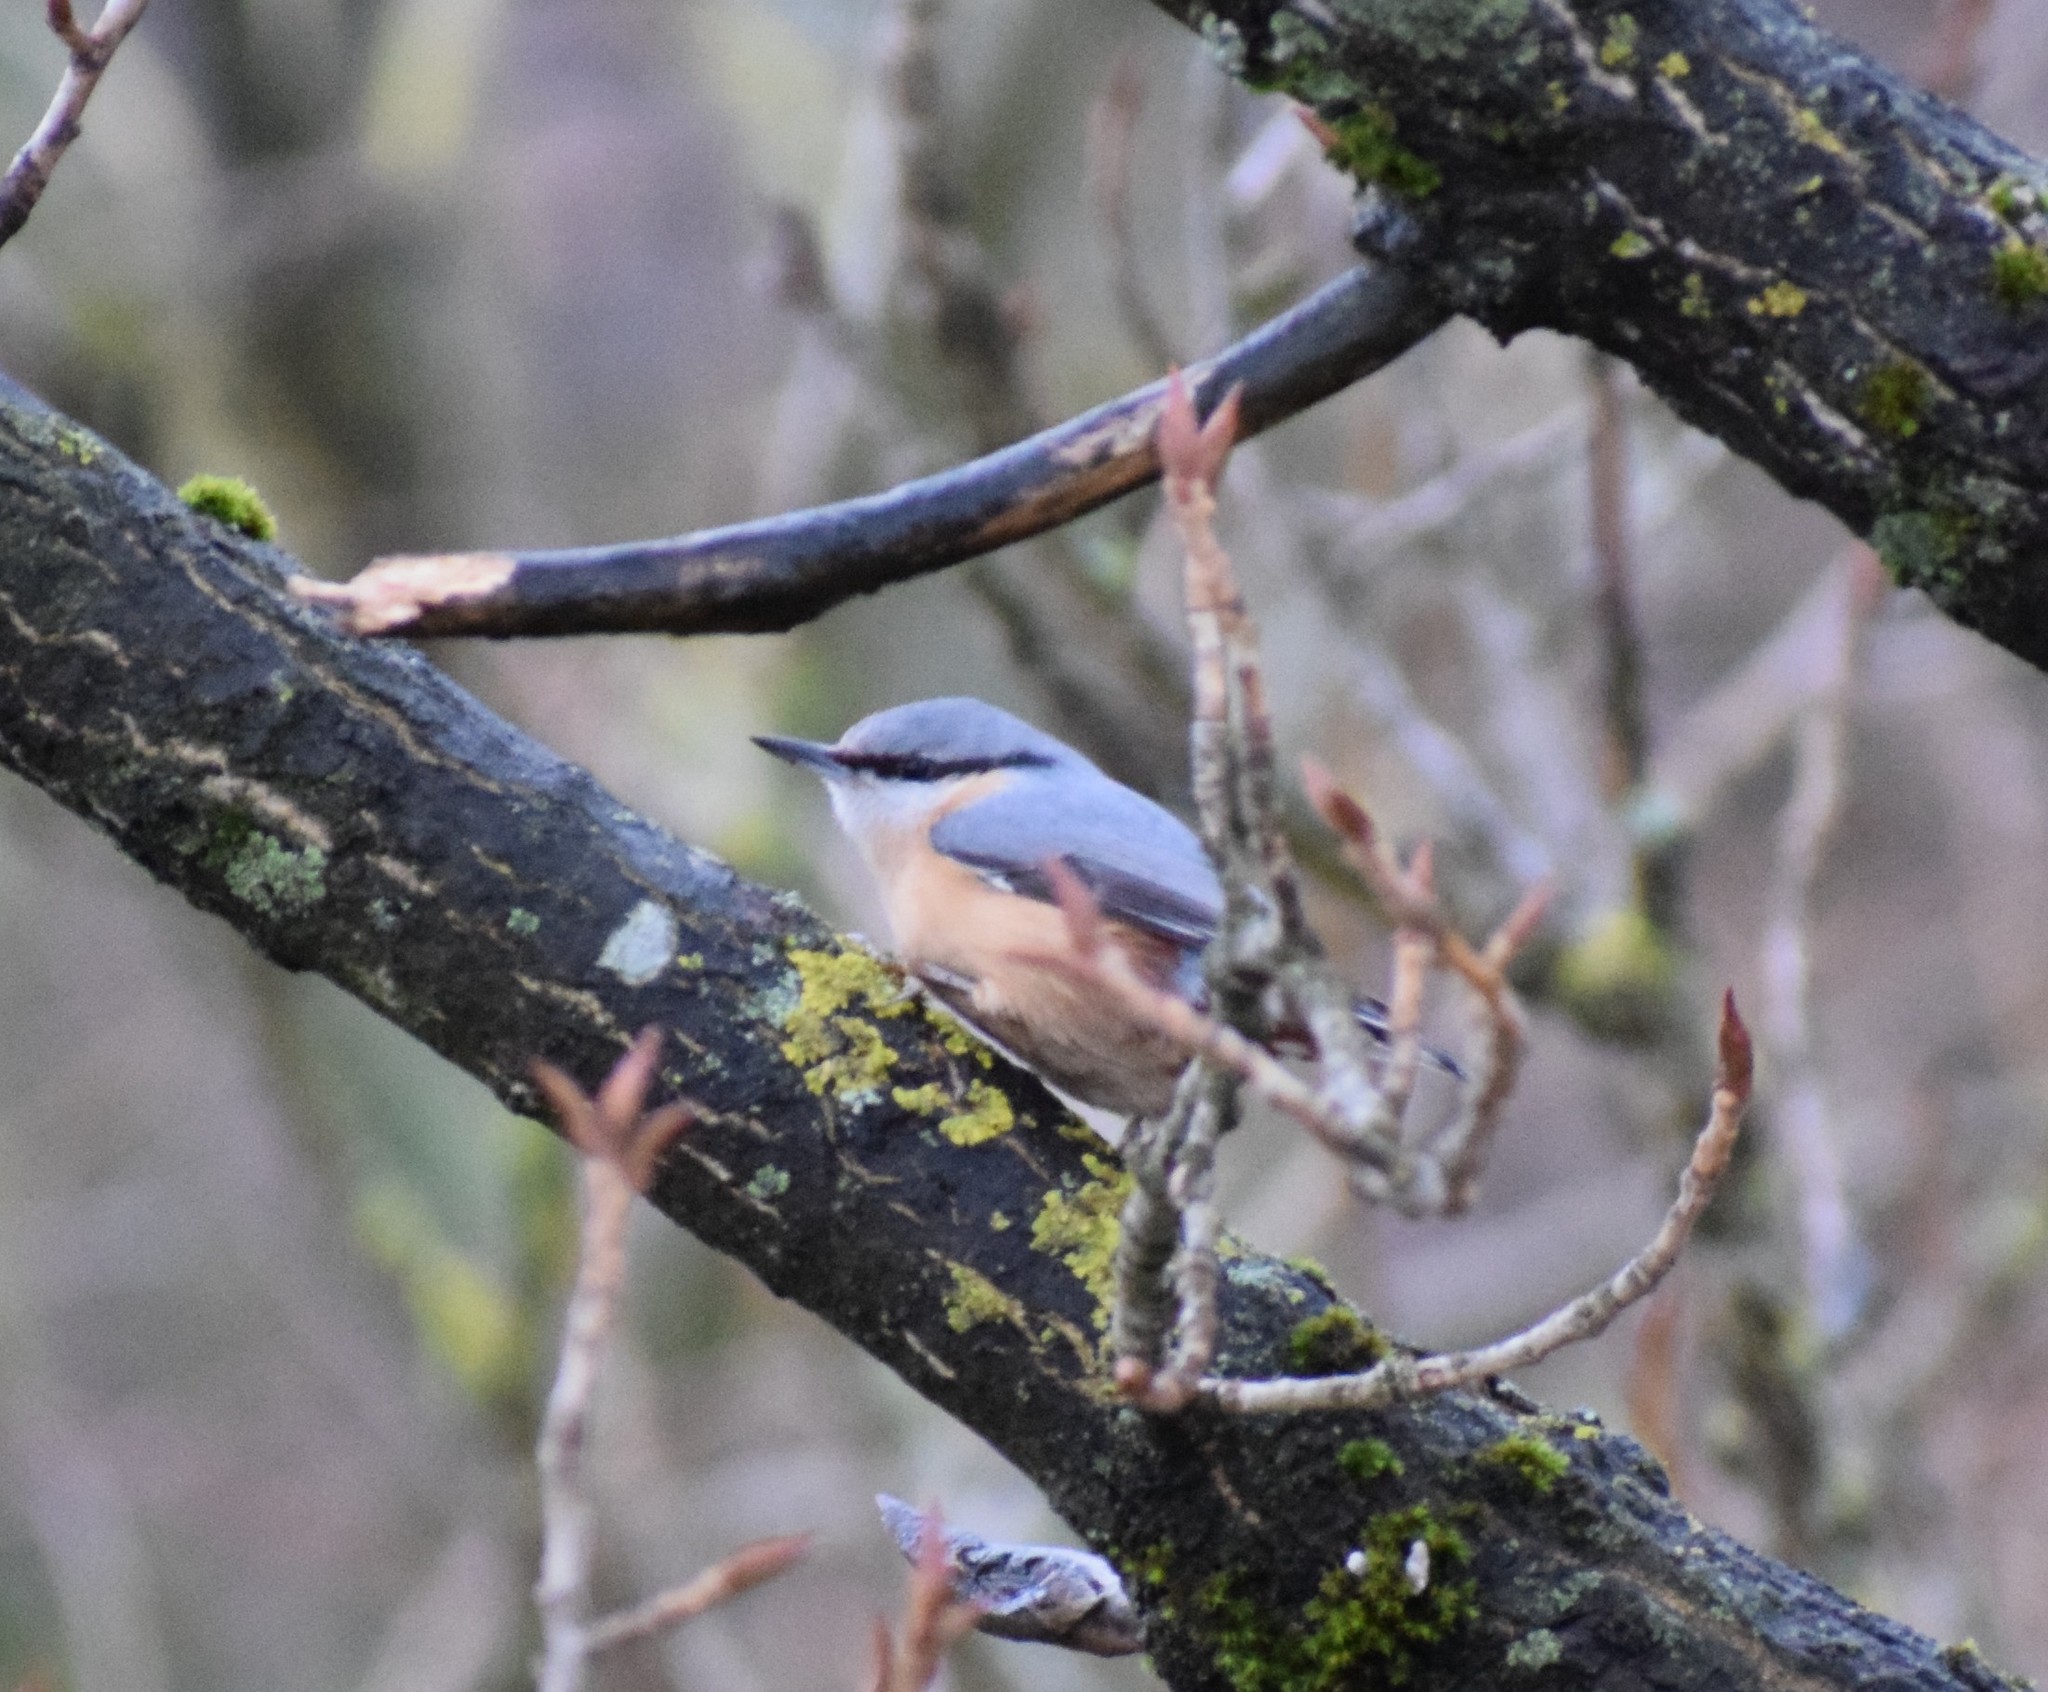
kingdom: Animalia
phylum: Chordata
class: Aves
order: Passeriformes
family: Sittidae
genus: Sitta
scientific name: Sitta europaea
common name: Eurasian nuthatch
